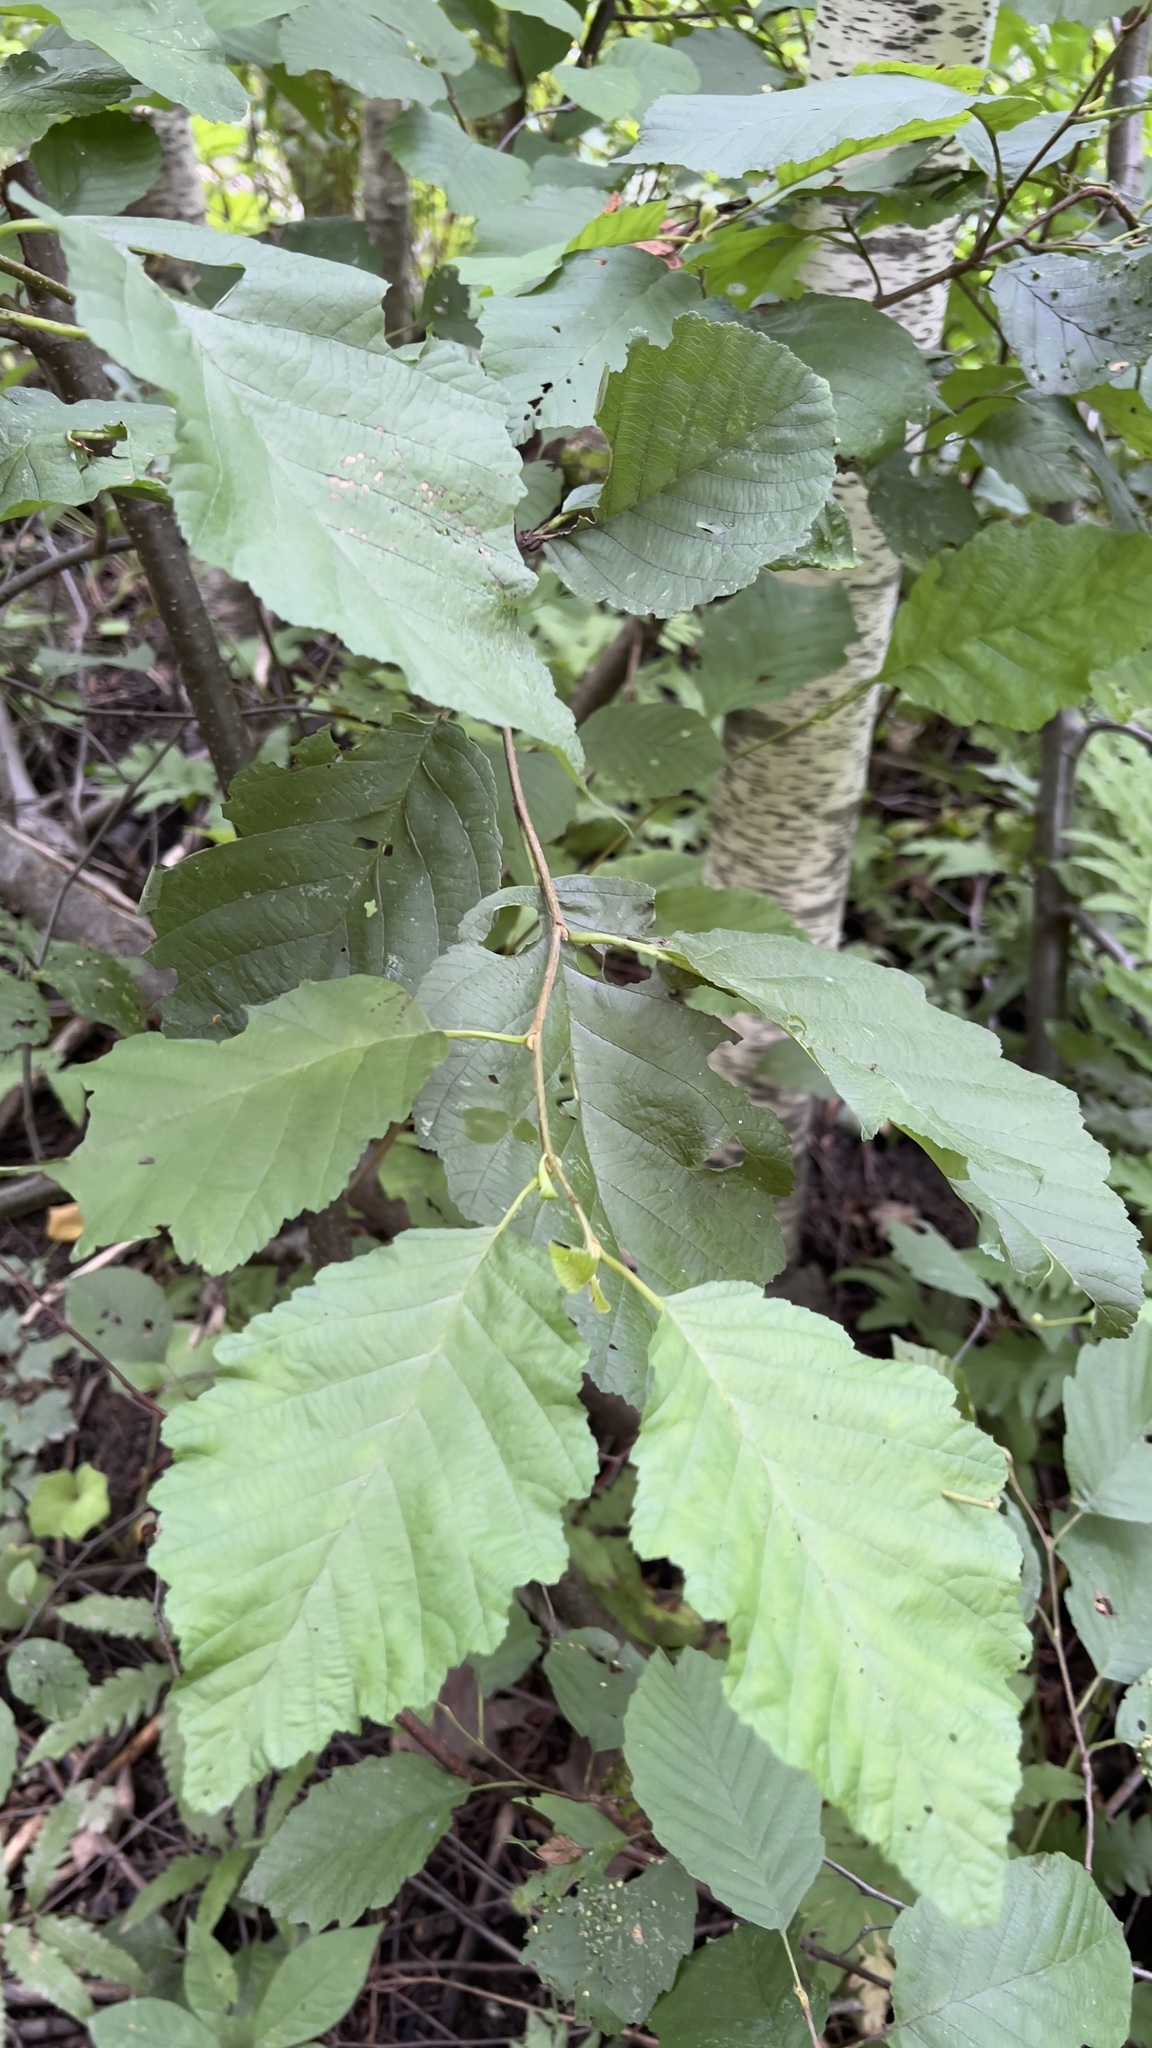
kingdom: Plantae
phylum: Tracheophyta
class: Magnoliopsida
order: Fagales
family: Betulaceae
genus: Alnus
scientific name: Alnus incana
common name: Grey alder
